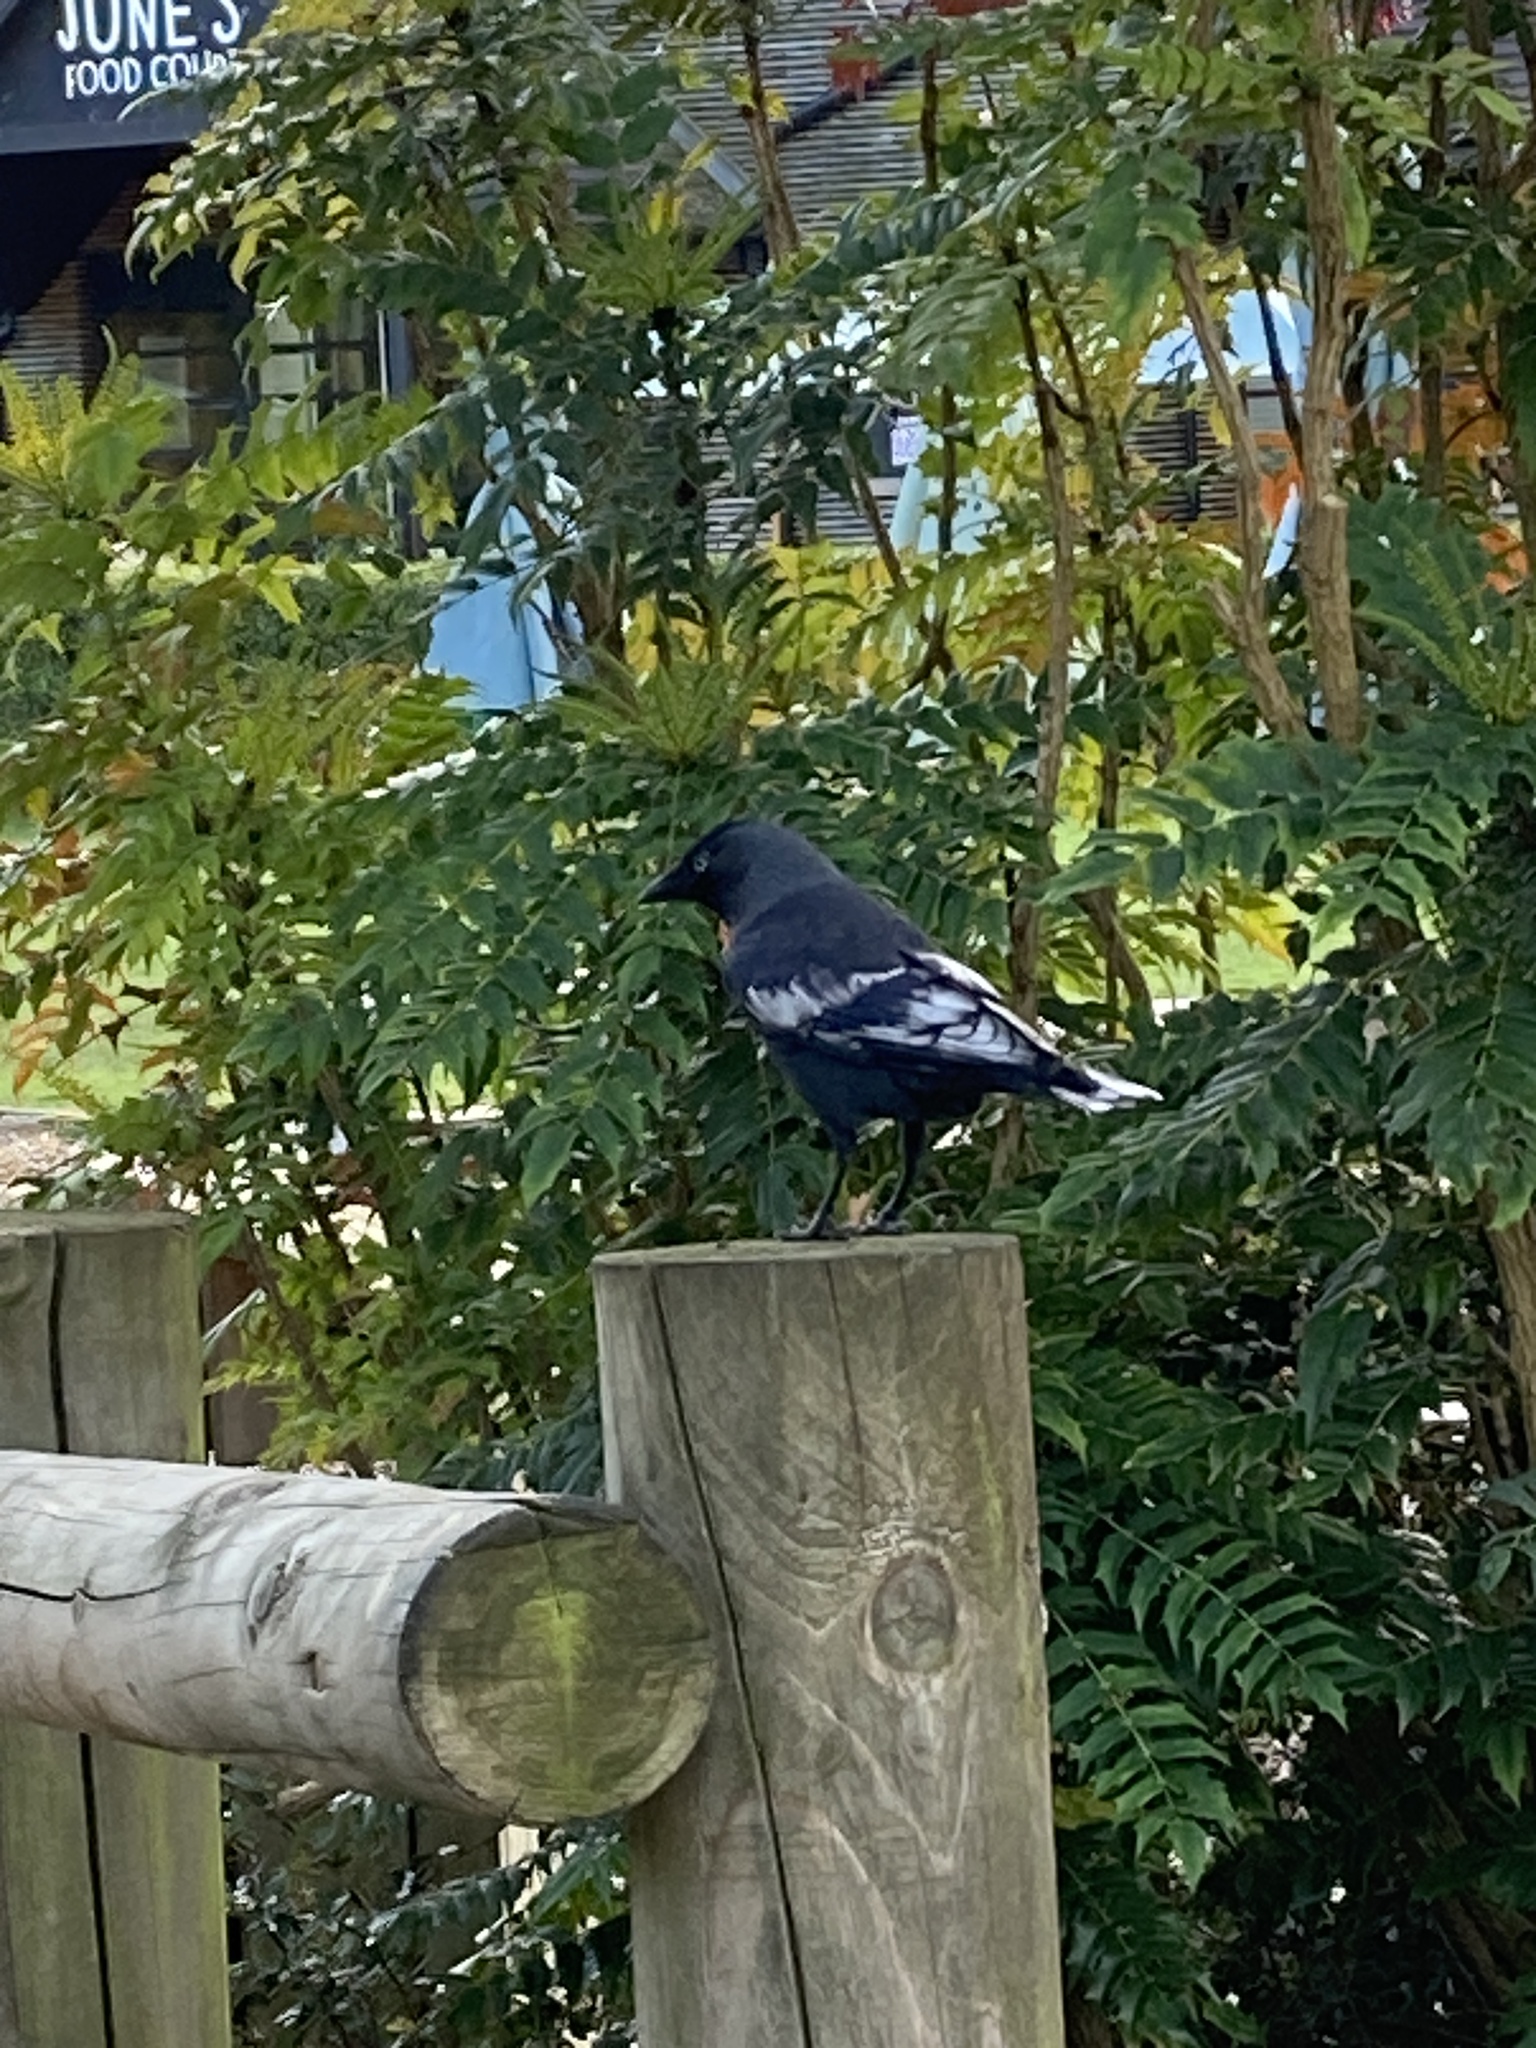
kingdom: Animalia
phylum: Chordata
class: Aves
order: Passeriformes
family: Corvidae
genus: Coloeus
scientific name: Coloeus monedula
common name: Western jackdaw
